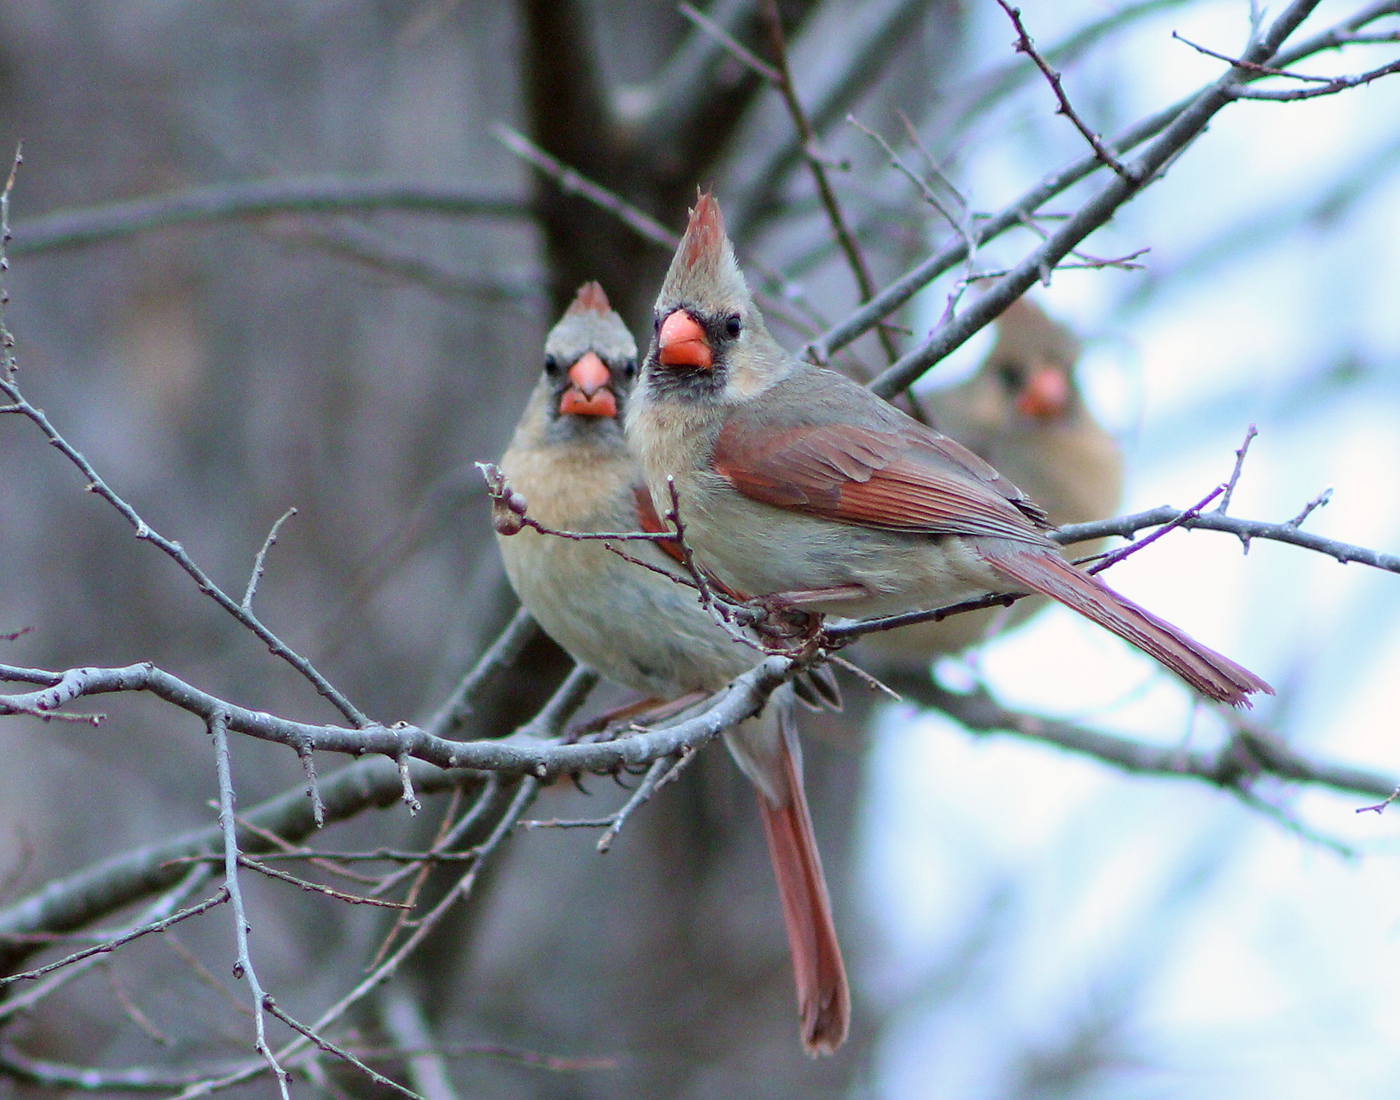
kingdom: Animalia
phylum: Chordata
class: Aves
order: Passeriformes
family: Cardinalidae
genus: Cardinalis
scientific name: Cardinalis cardinalis
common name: Northern cardinal
